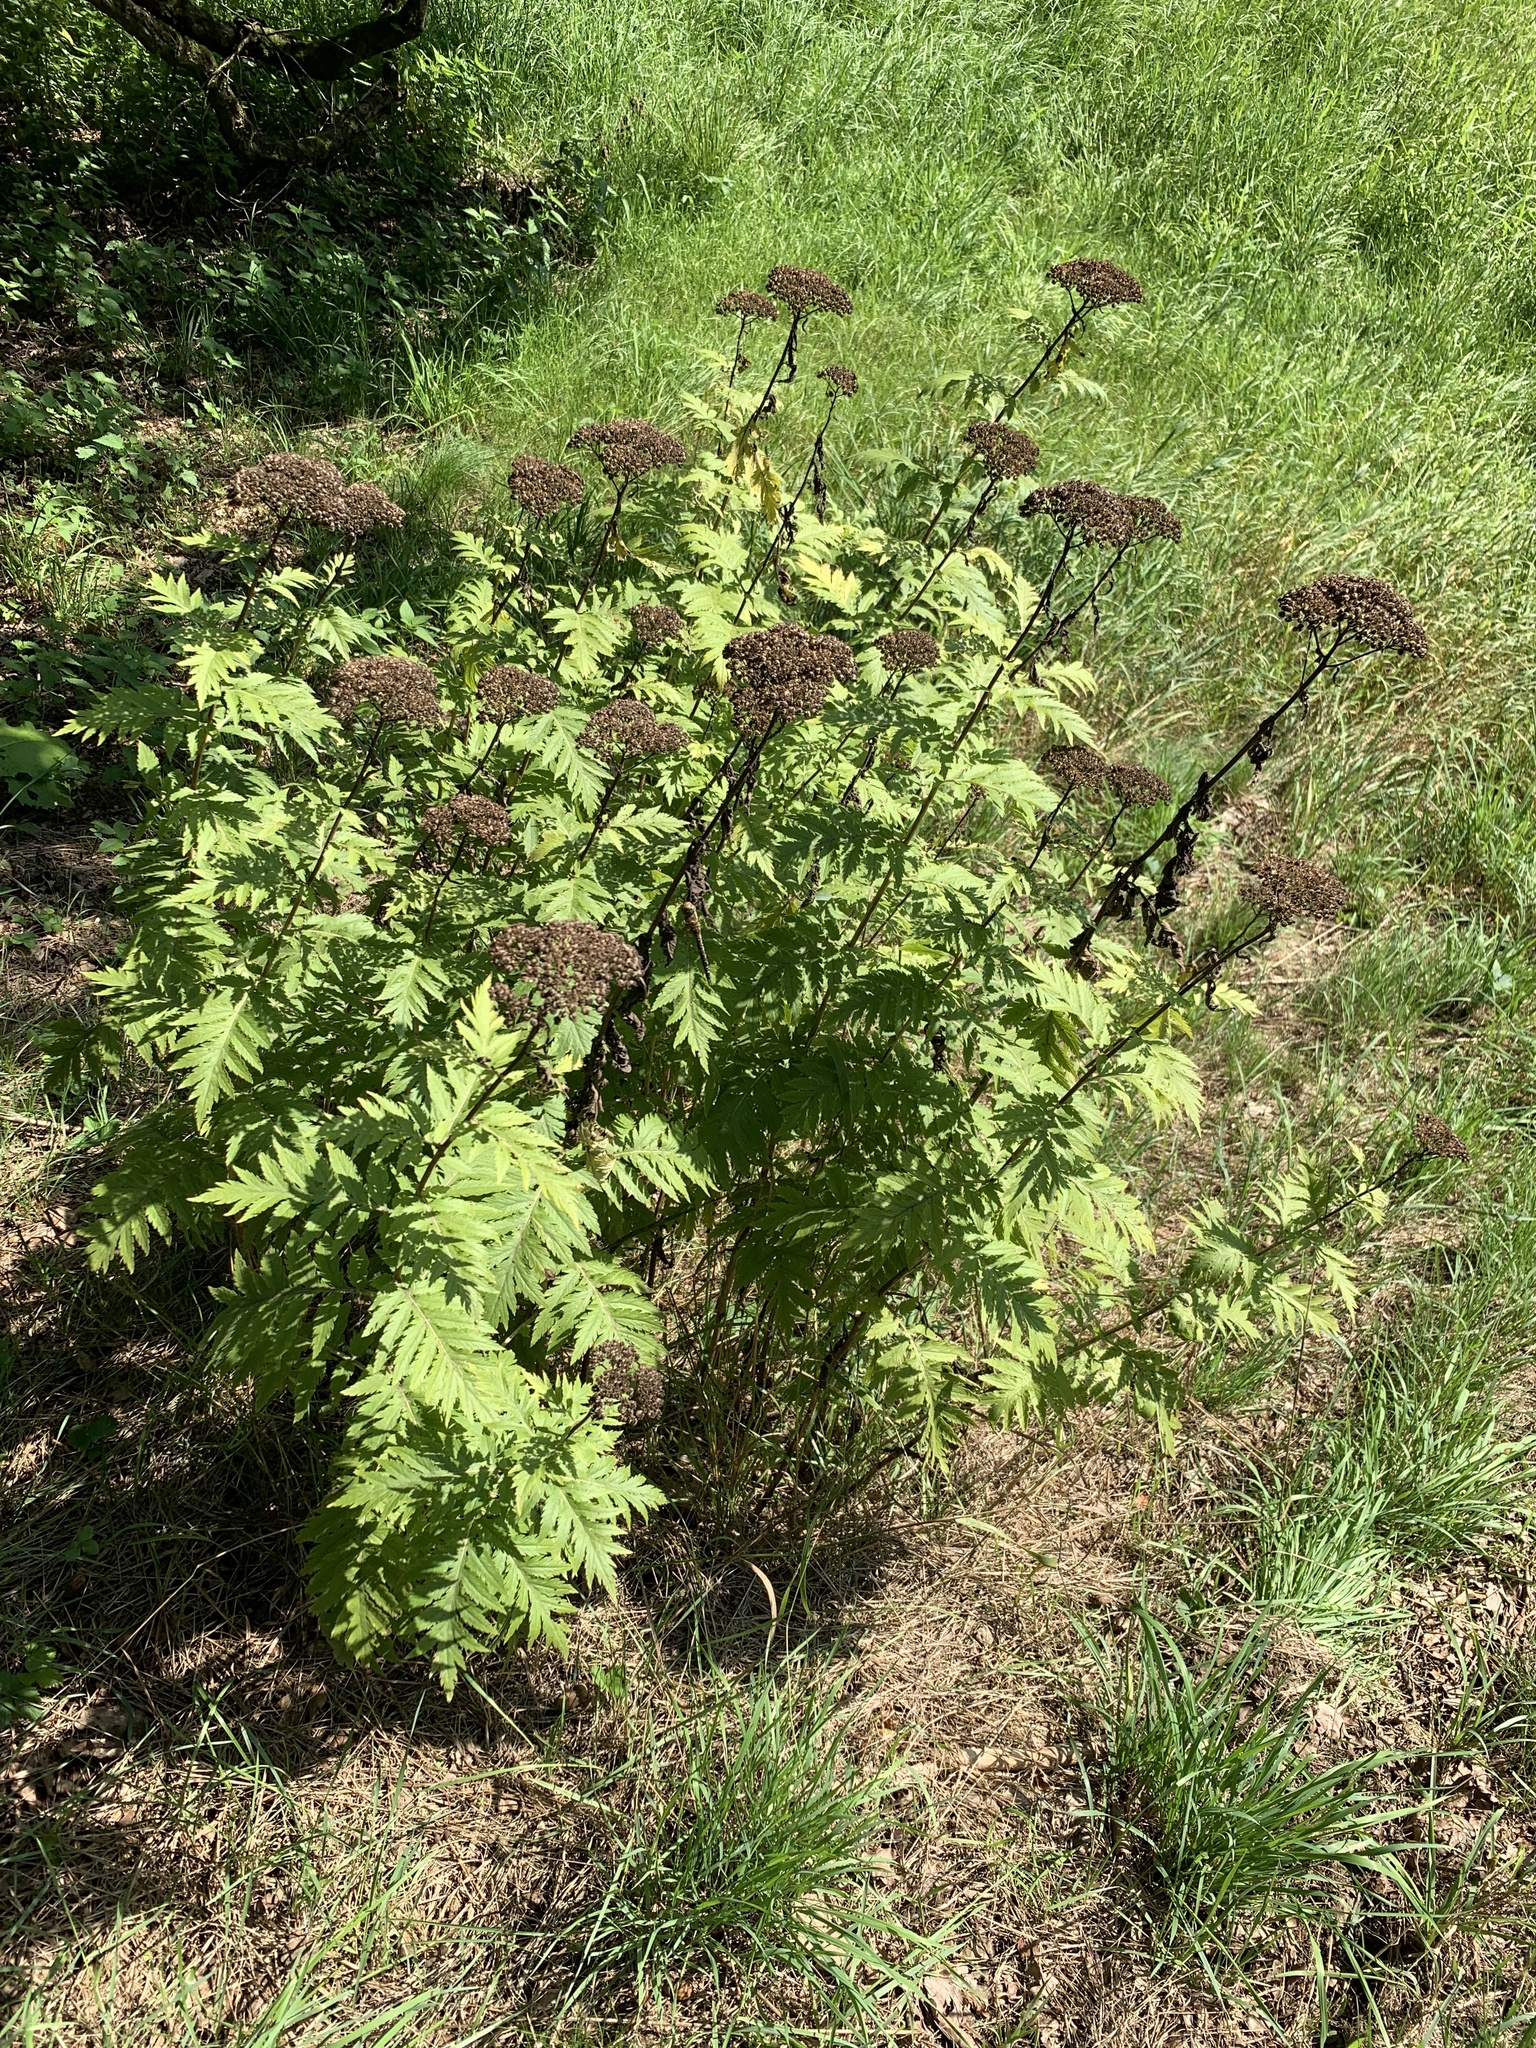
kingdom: Plantae
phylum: Tracheophyta
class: Magnoliopsida
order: Asterales
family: Asteraceae
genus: Tanacetum
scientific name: Tanacetum macrophyllum
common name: Rayed tansy
